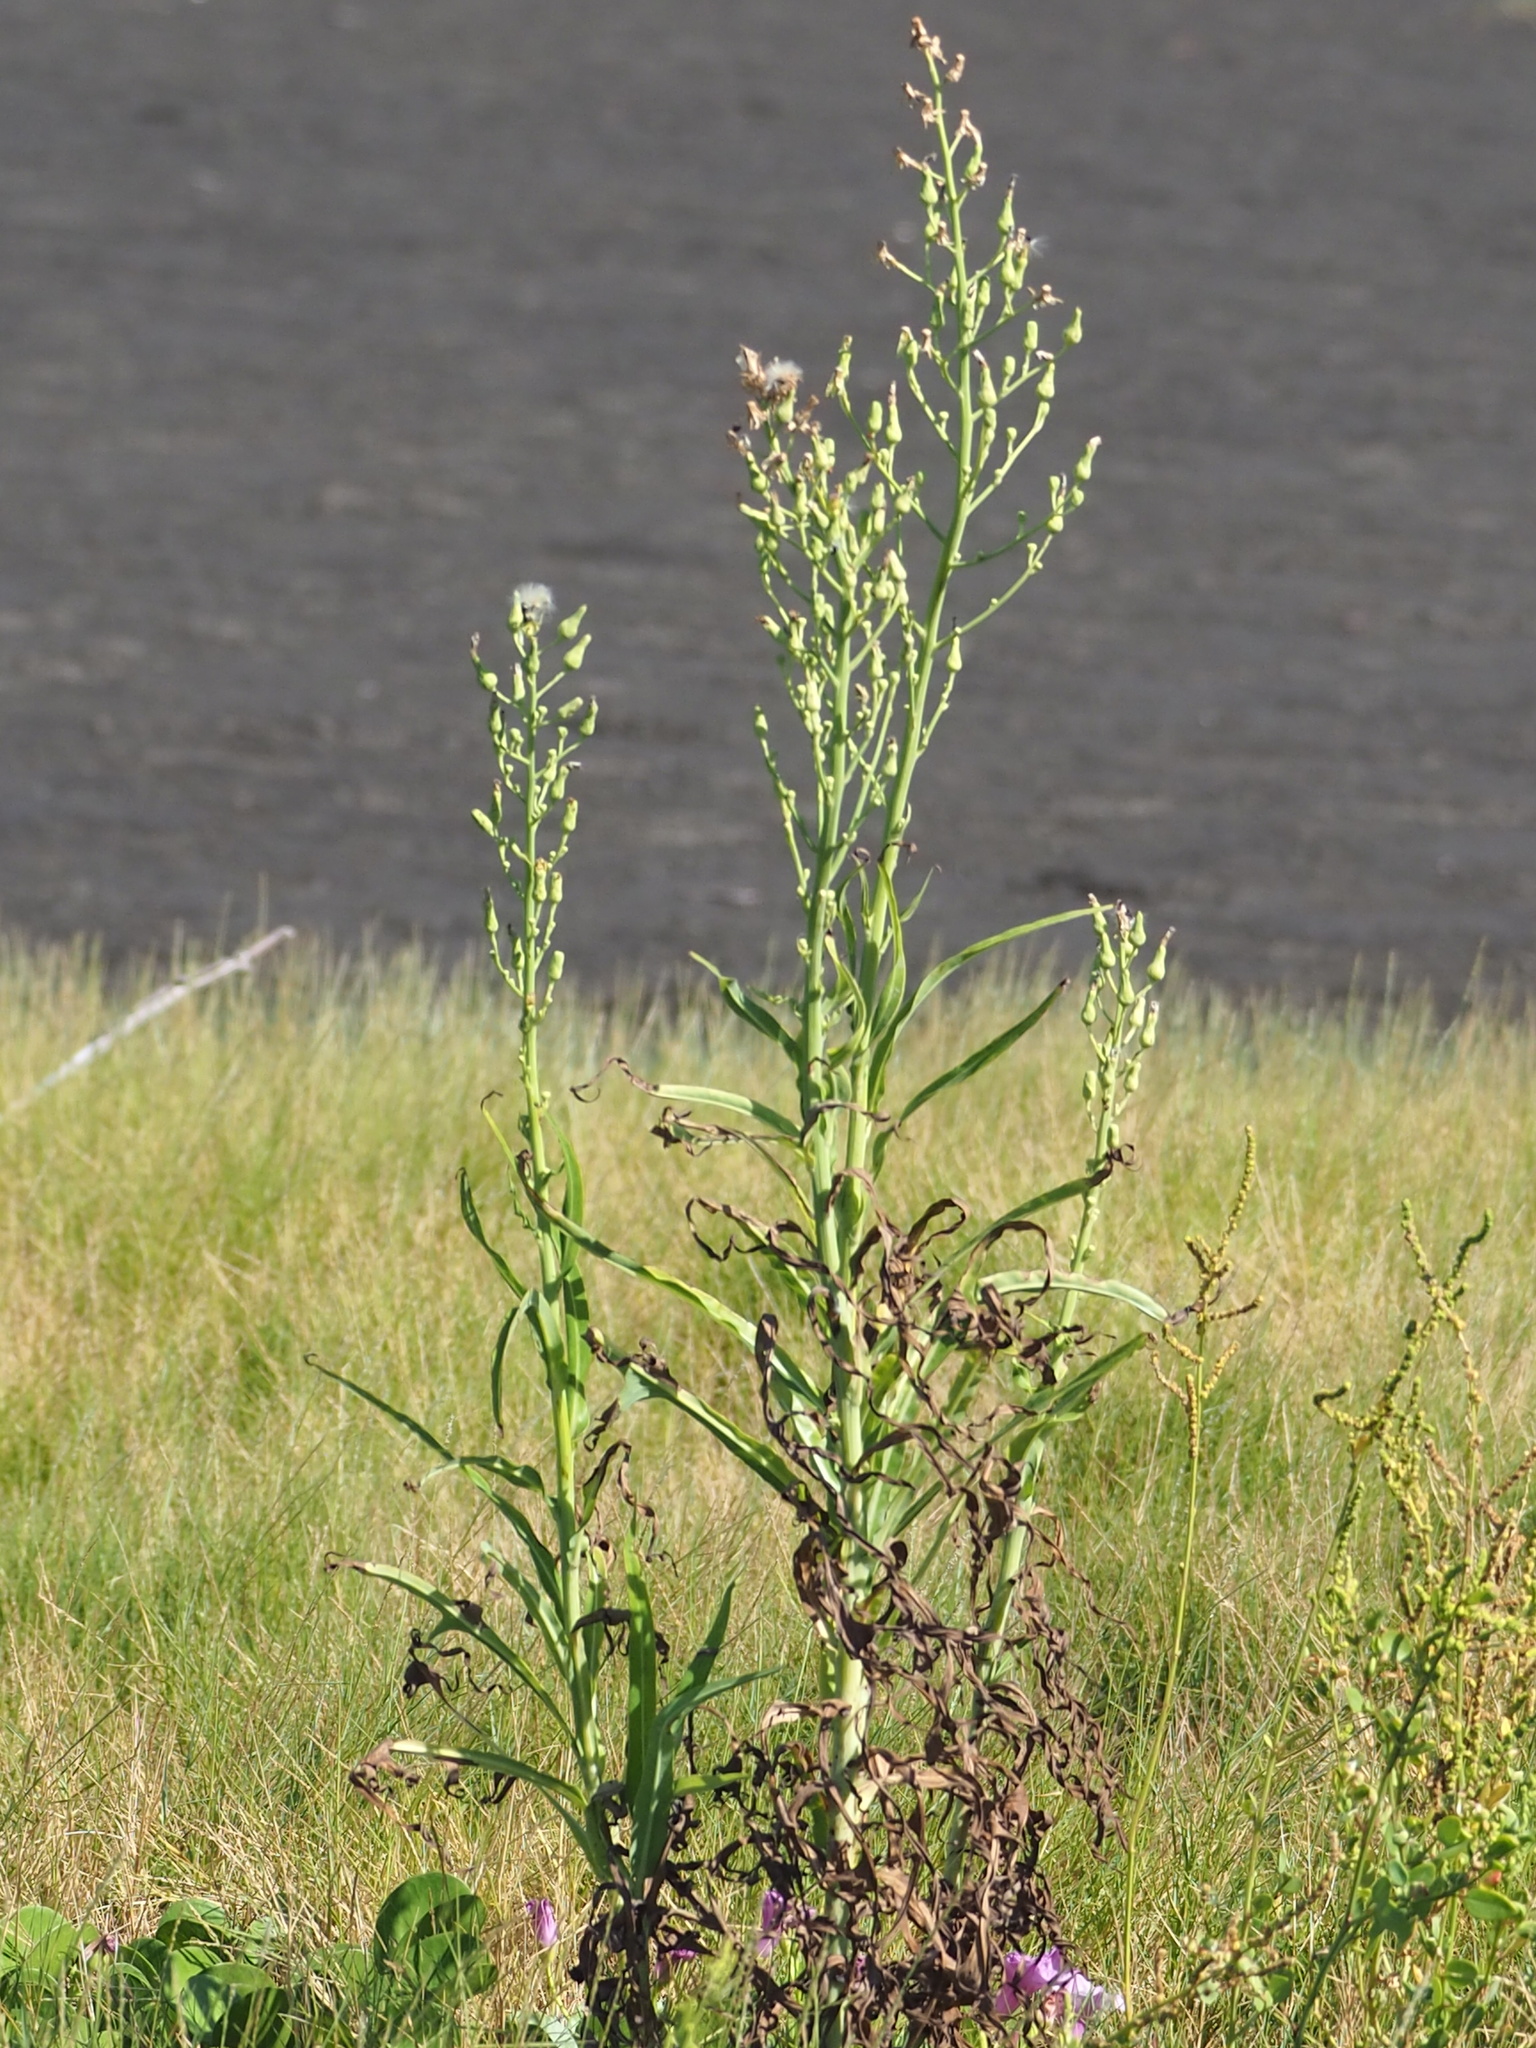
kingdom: Plantae
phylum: Tracheophyta
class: Magnoliopsida
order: Asterales
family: Asteraceae
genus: Lactuca
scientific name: Lactuca indica
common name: Wild lettuce
